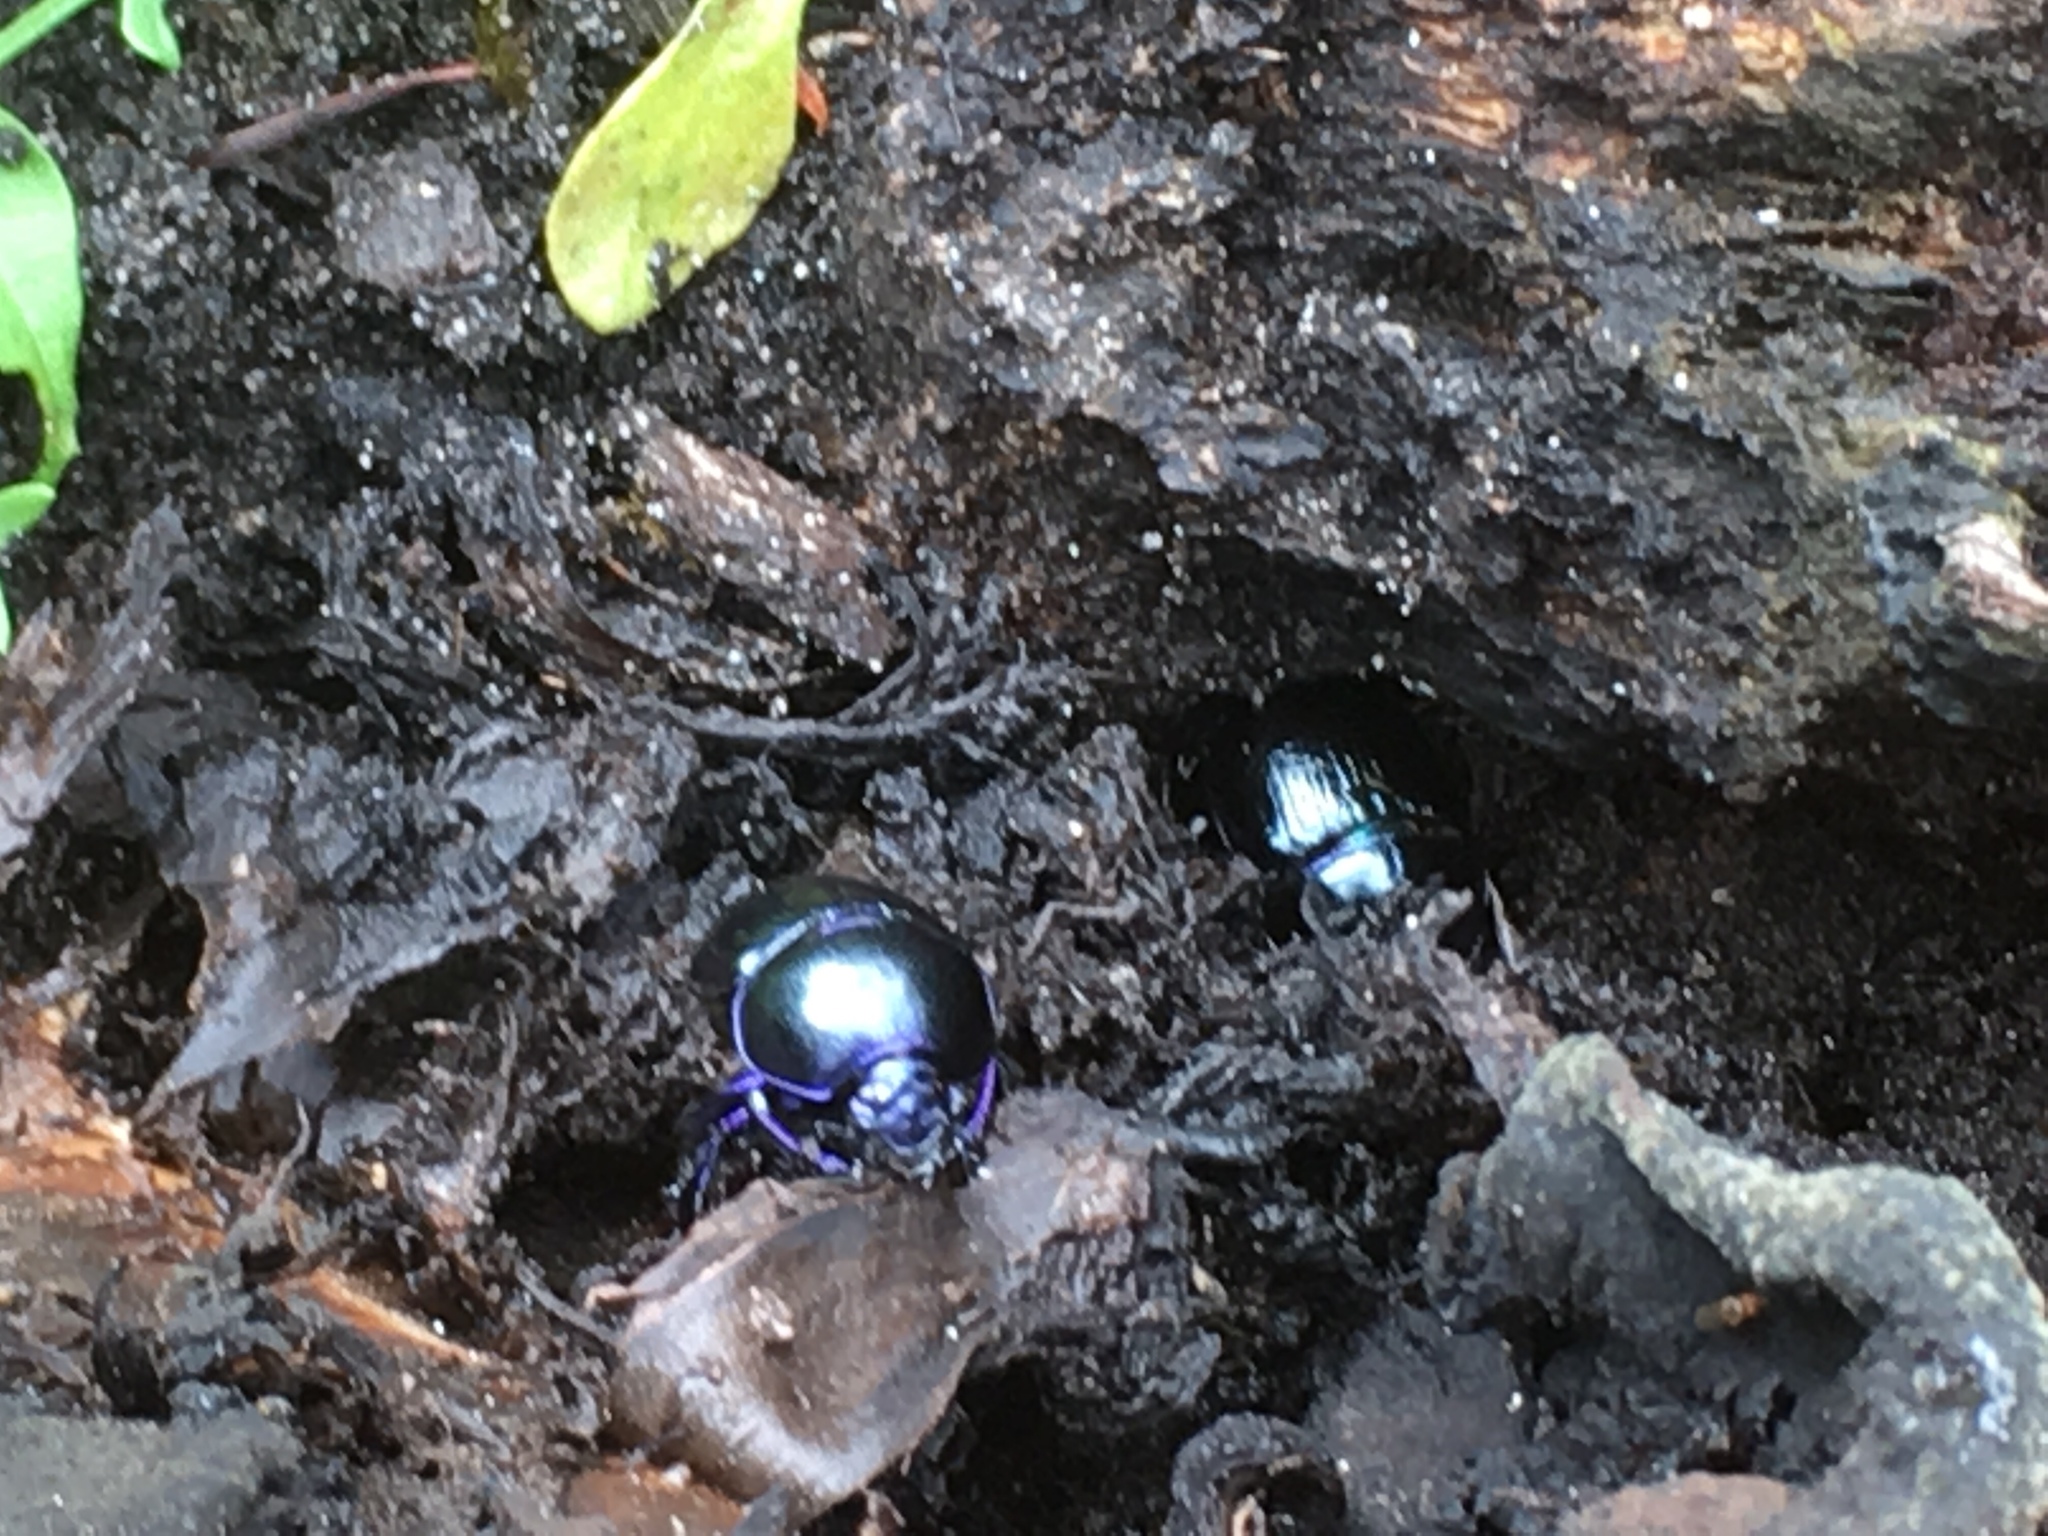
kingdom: Animalia
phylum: Arthropoda
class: Insecta
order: Coleoptera
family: Geotrupidae
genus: Anoplotrupes
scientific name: Anoplotrupes stercorosus
